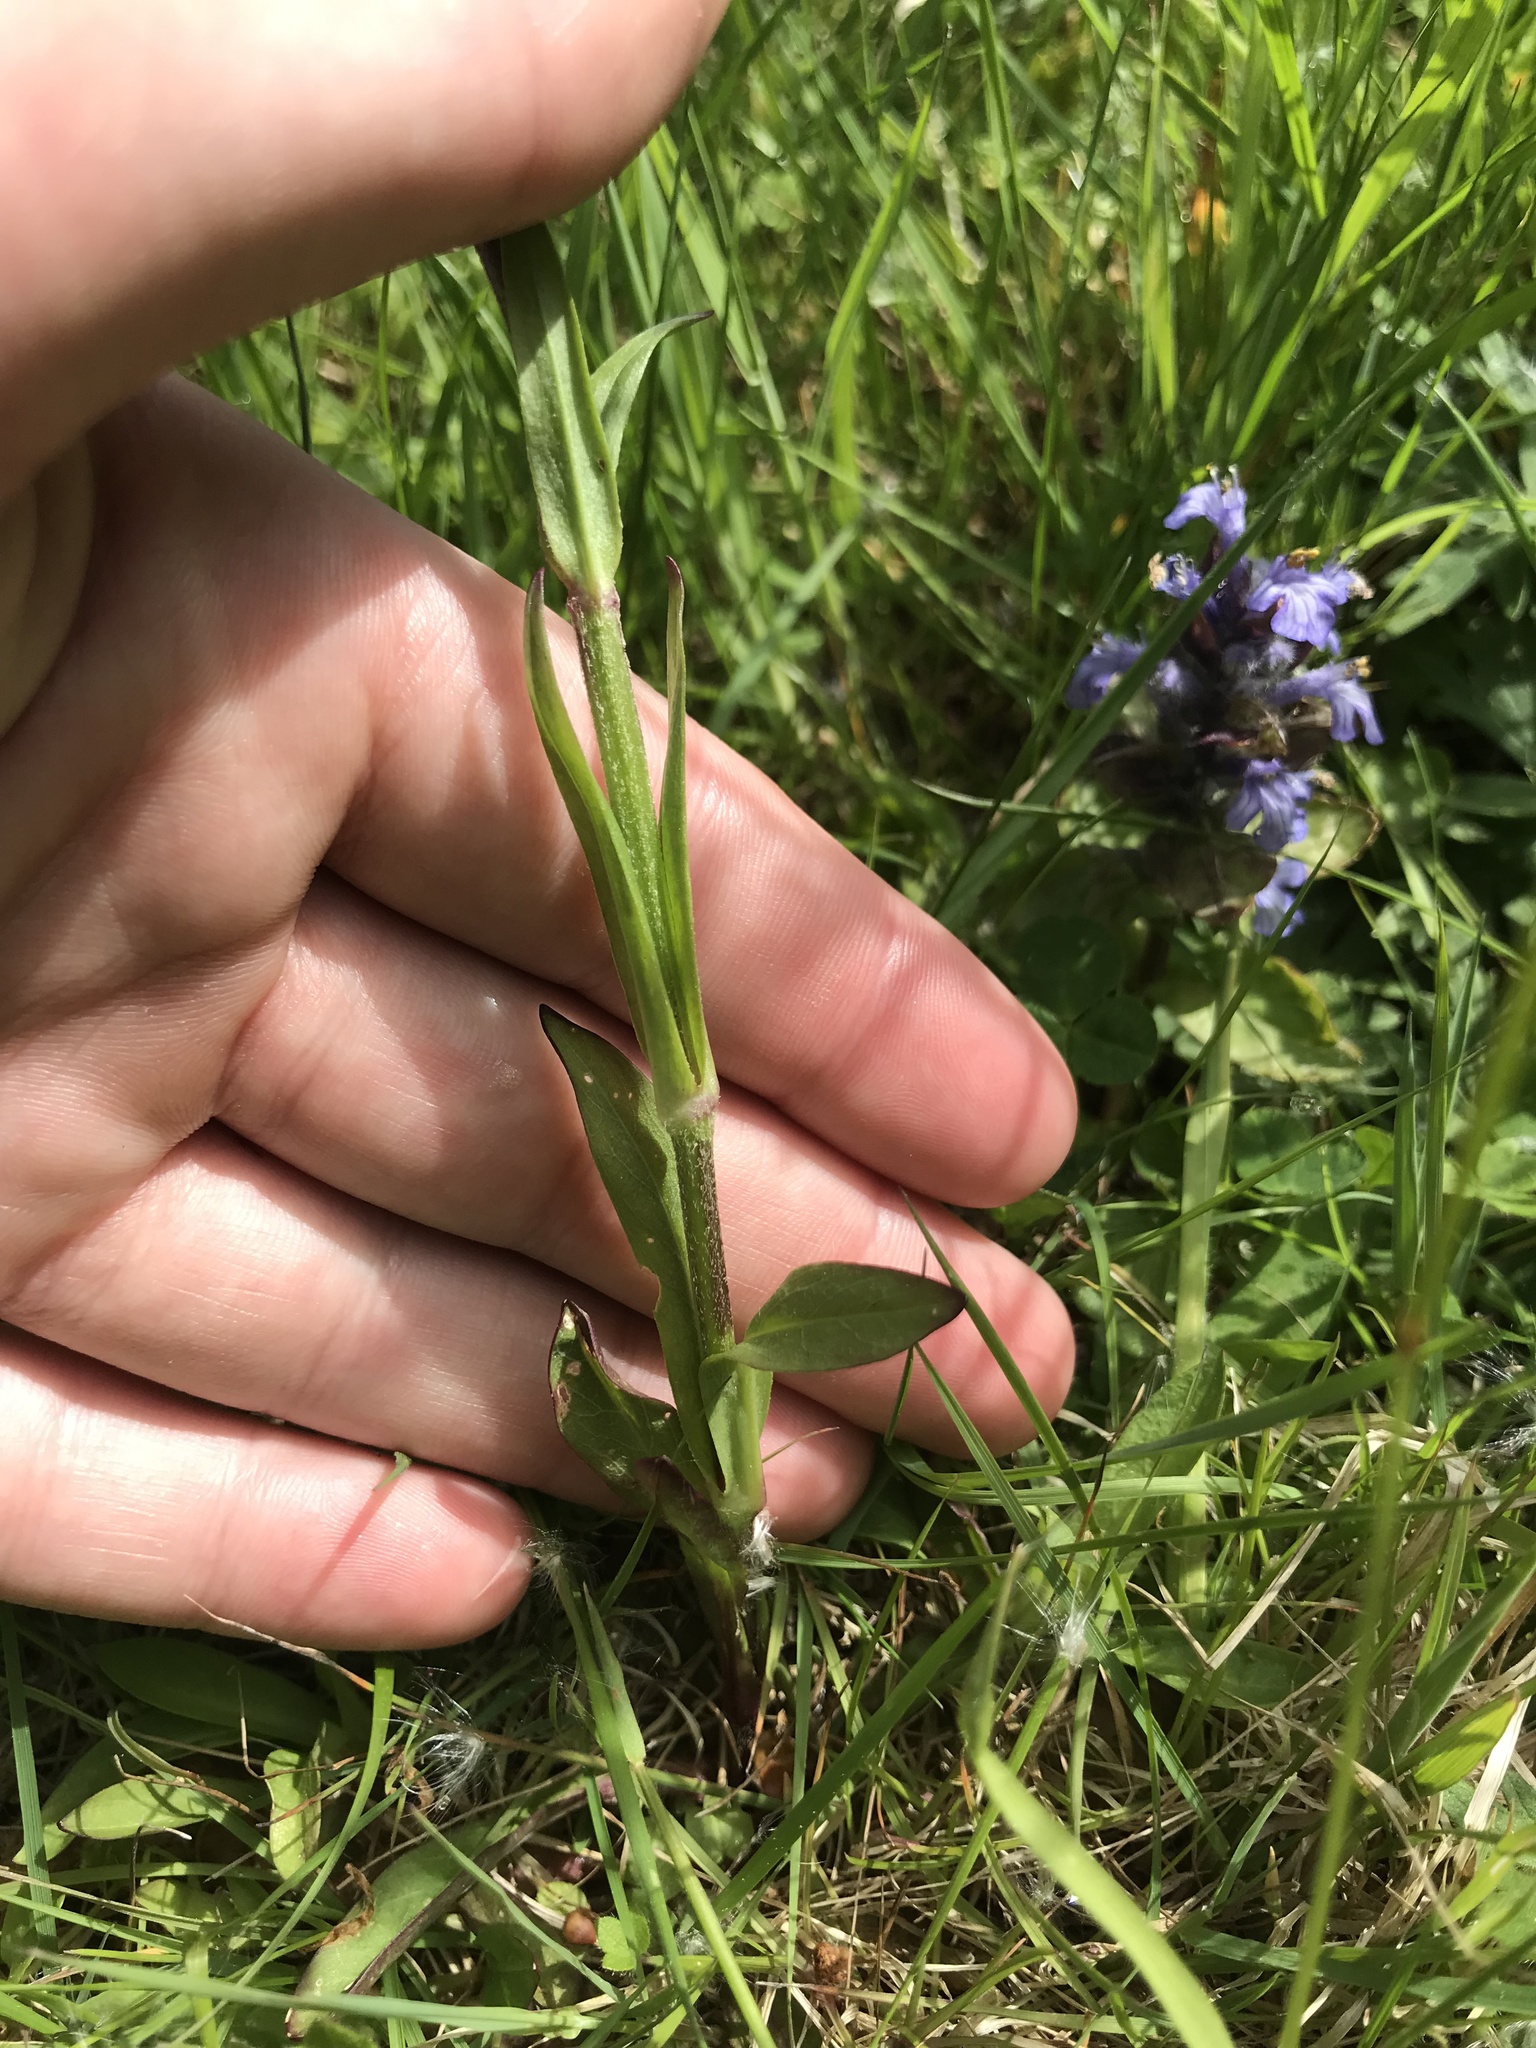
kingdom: Plantae
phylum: Tracheophyta
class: Magnoliopsida
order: Caryophyllales
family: Caryophyllaceae
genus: Silene
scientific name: Silene flos-cuculi
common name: Ragged-robin
